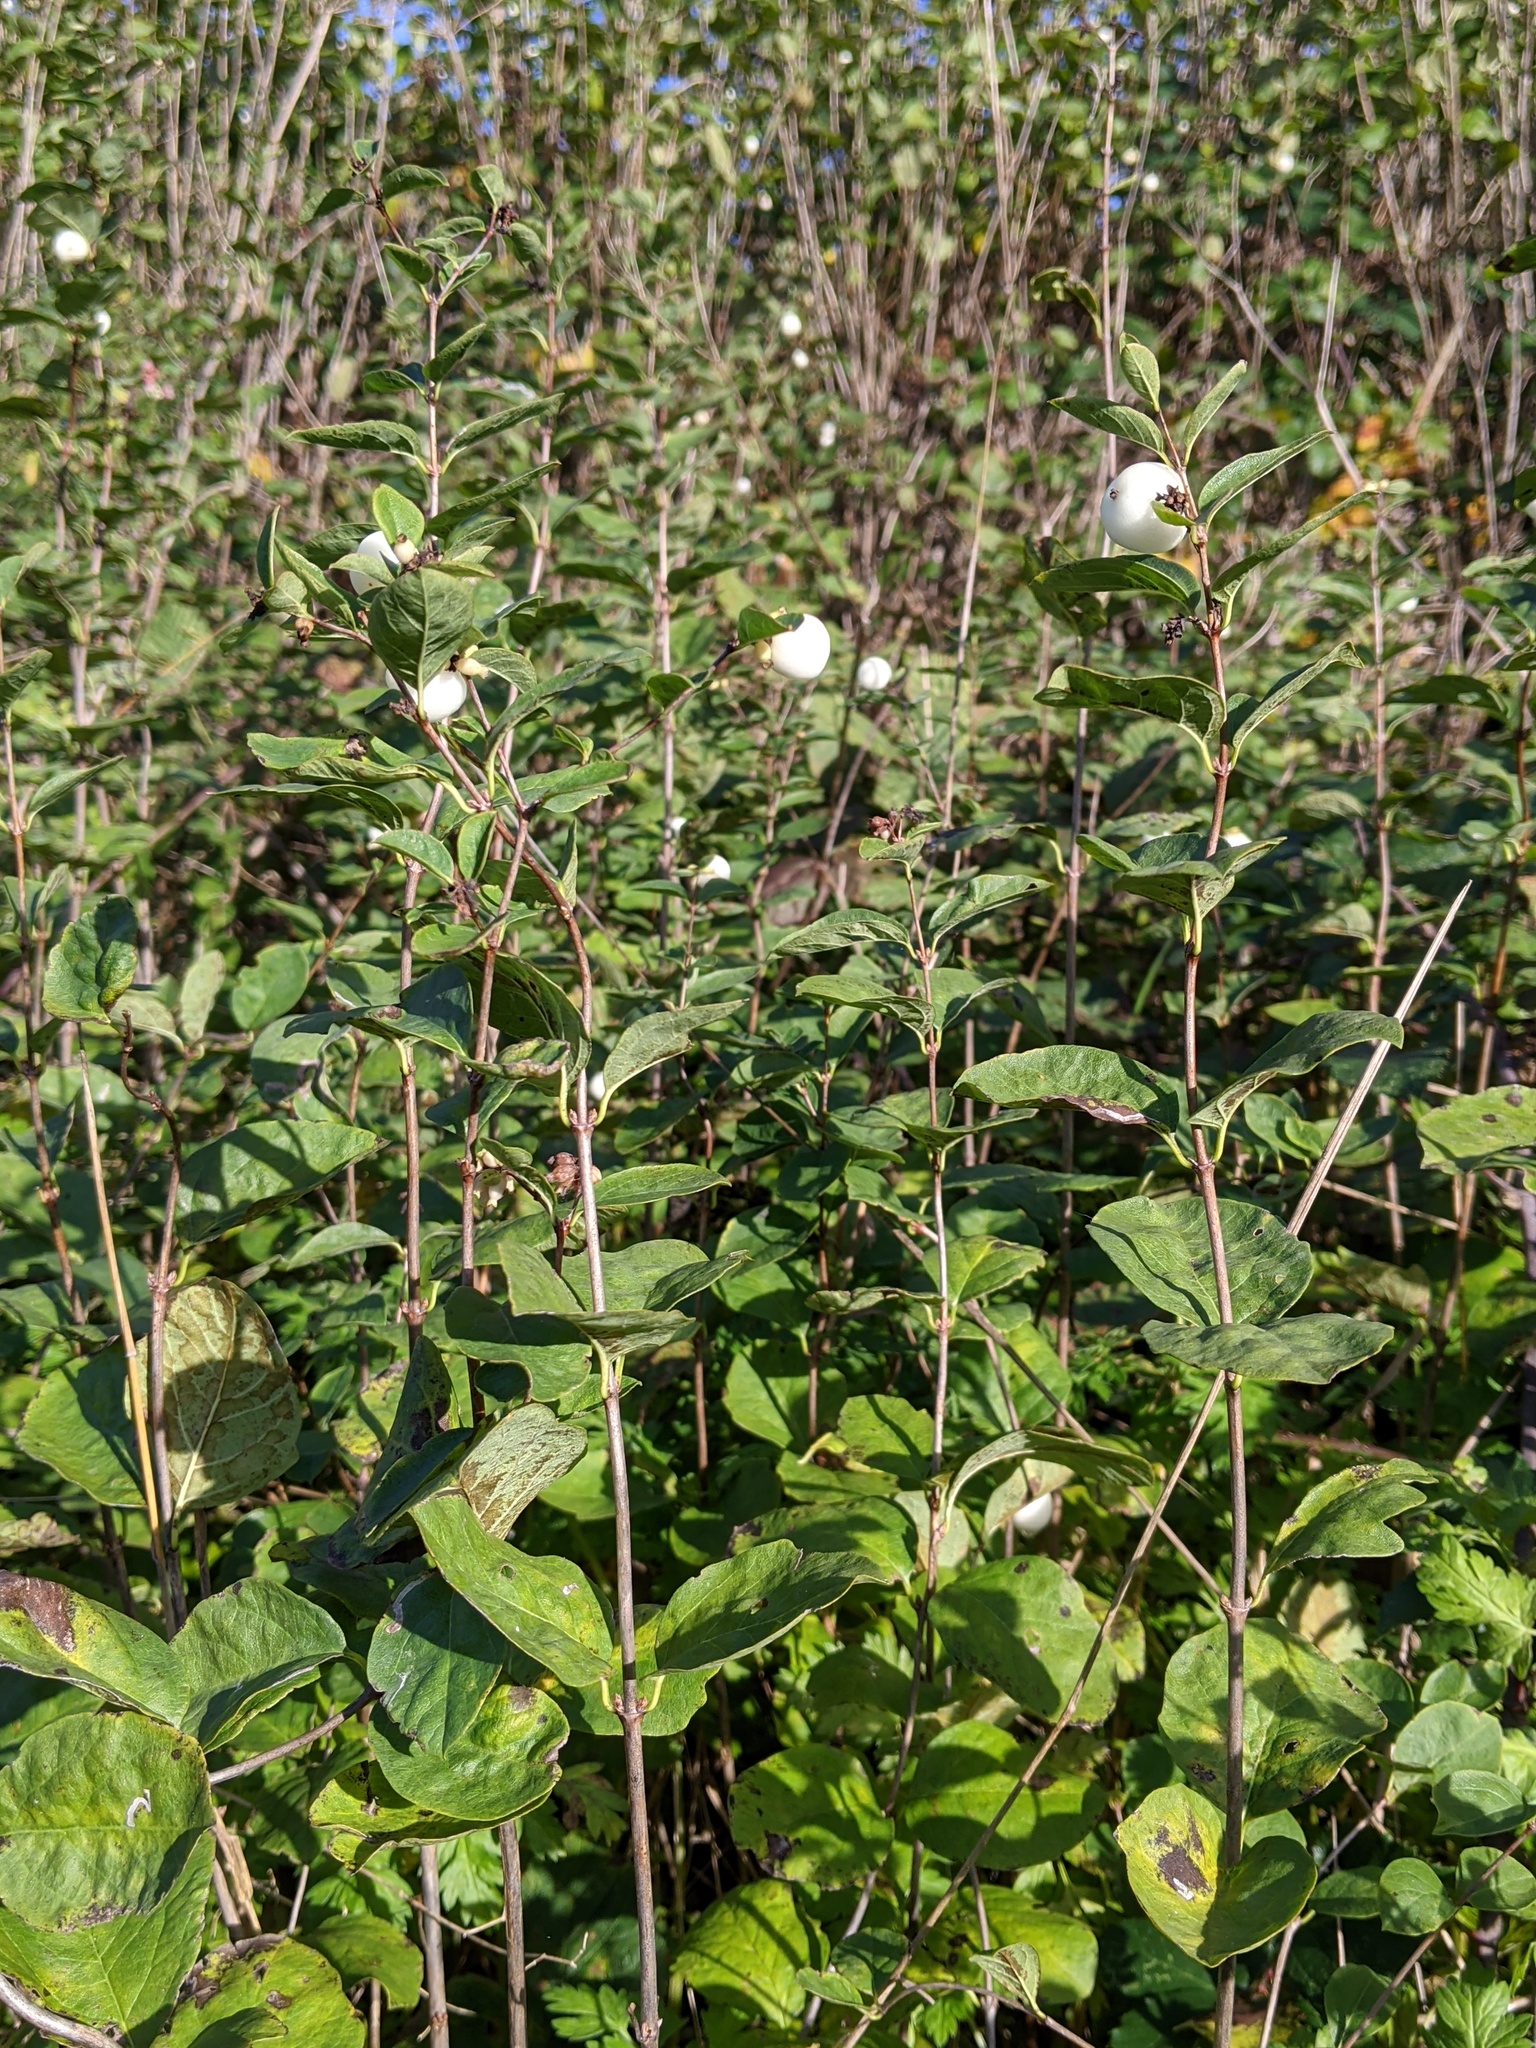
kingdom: Plantae
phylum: Tracheophyta
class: Magnoliopsida
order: Dipsacales
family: Caprifoliaceae
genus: Symphoricarpos
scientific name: Symphoricarpos albus
